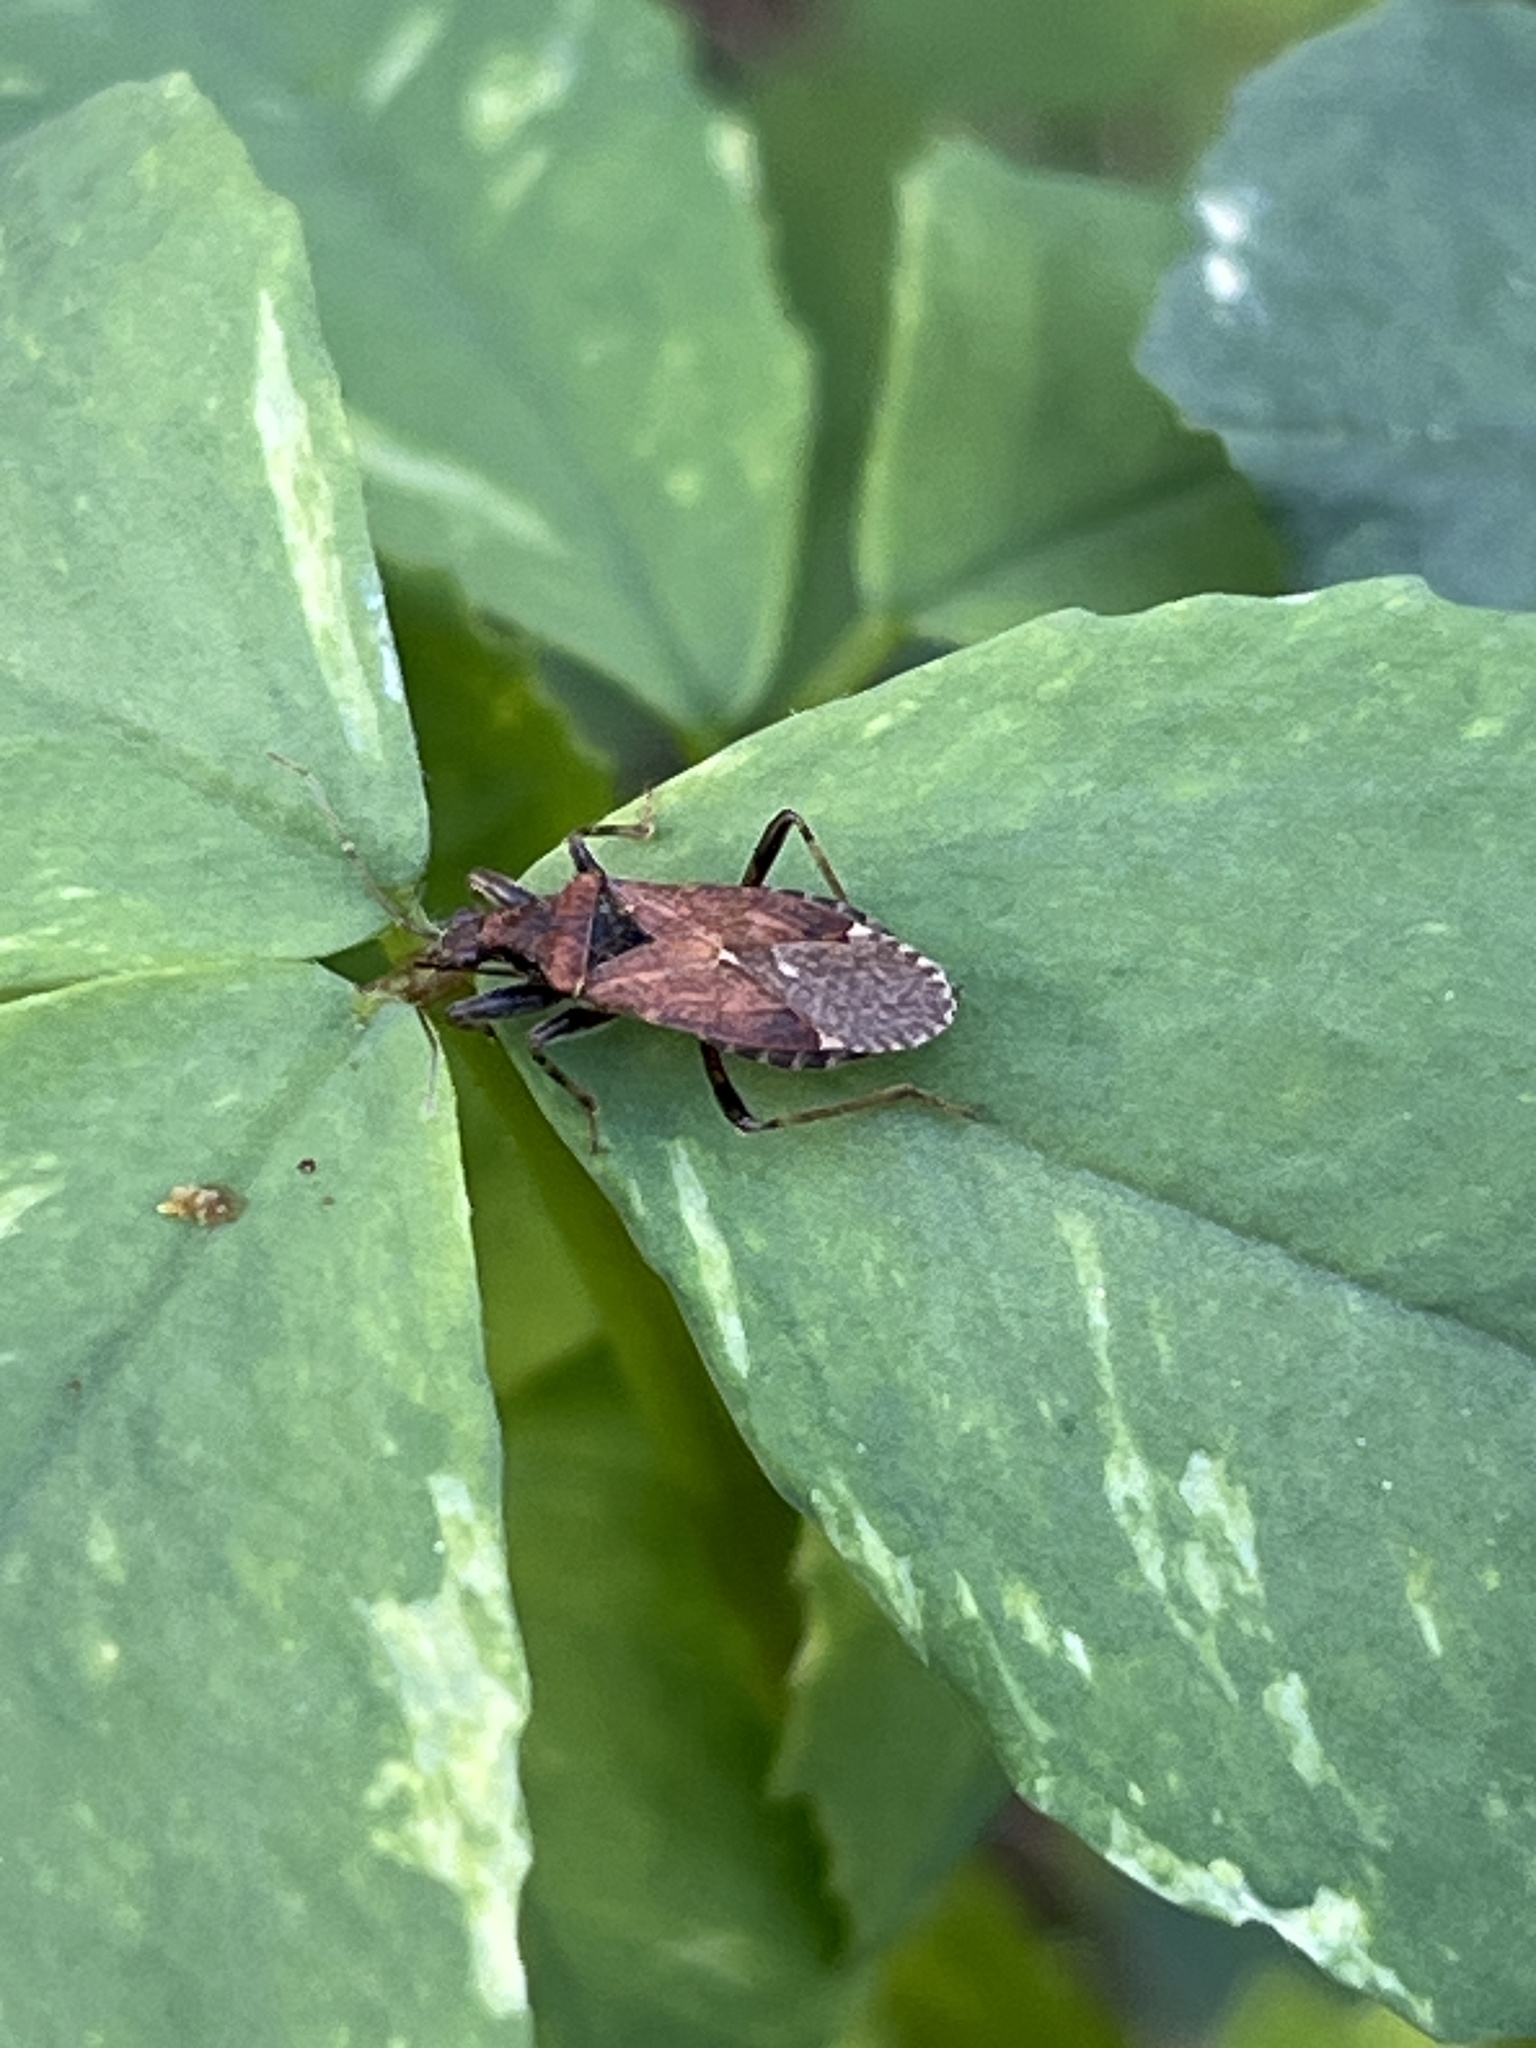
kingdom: Animalia
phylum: Arthropoda
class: Insecta
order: Hemiptera
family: Nabidae
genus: Himacerus
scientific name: Himacerus mirmicoides
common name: Ant damsel bug
